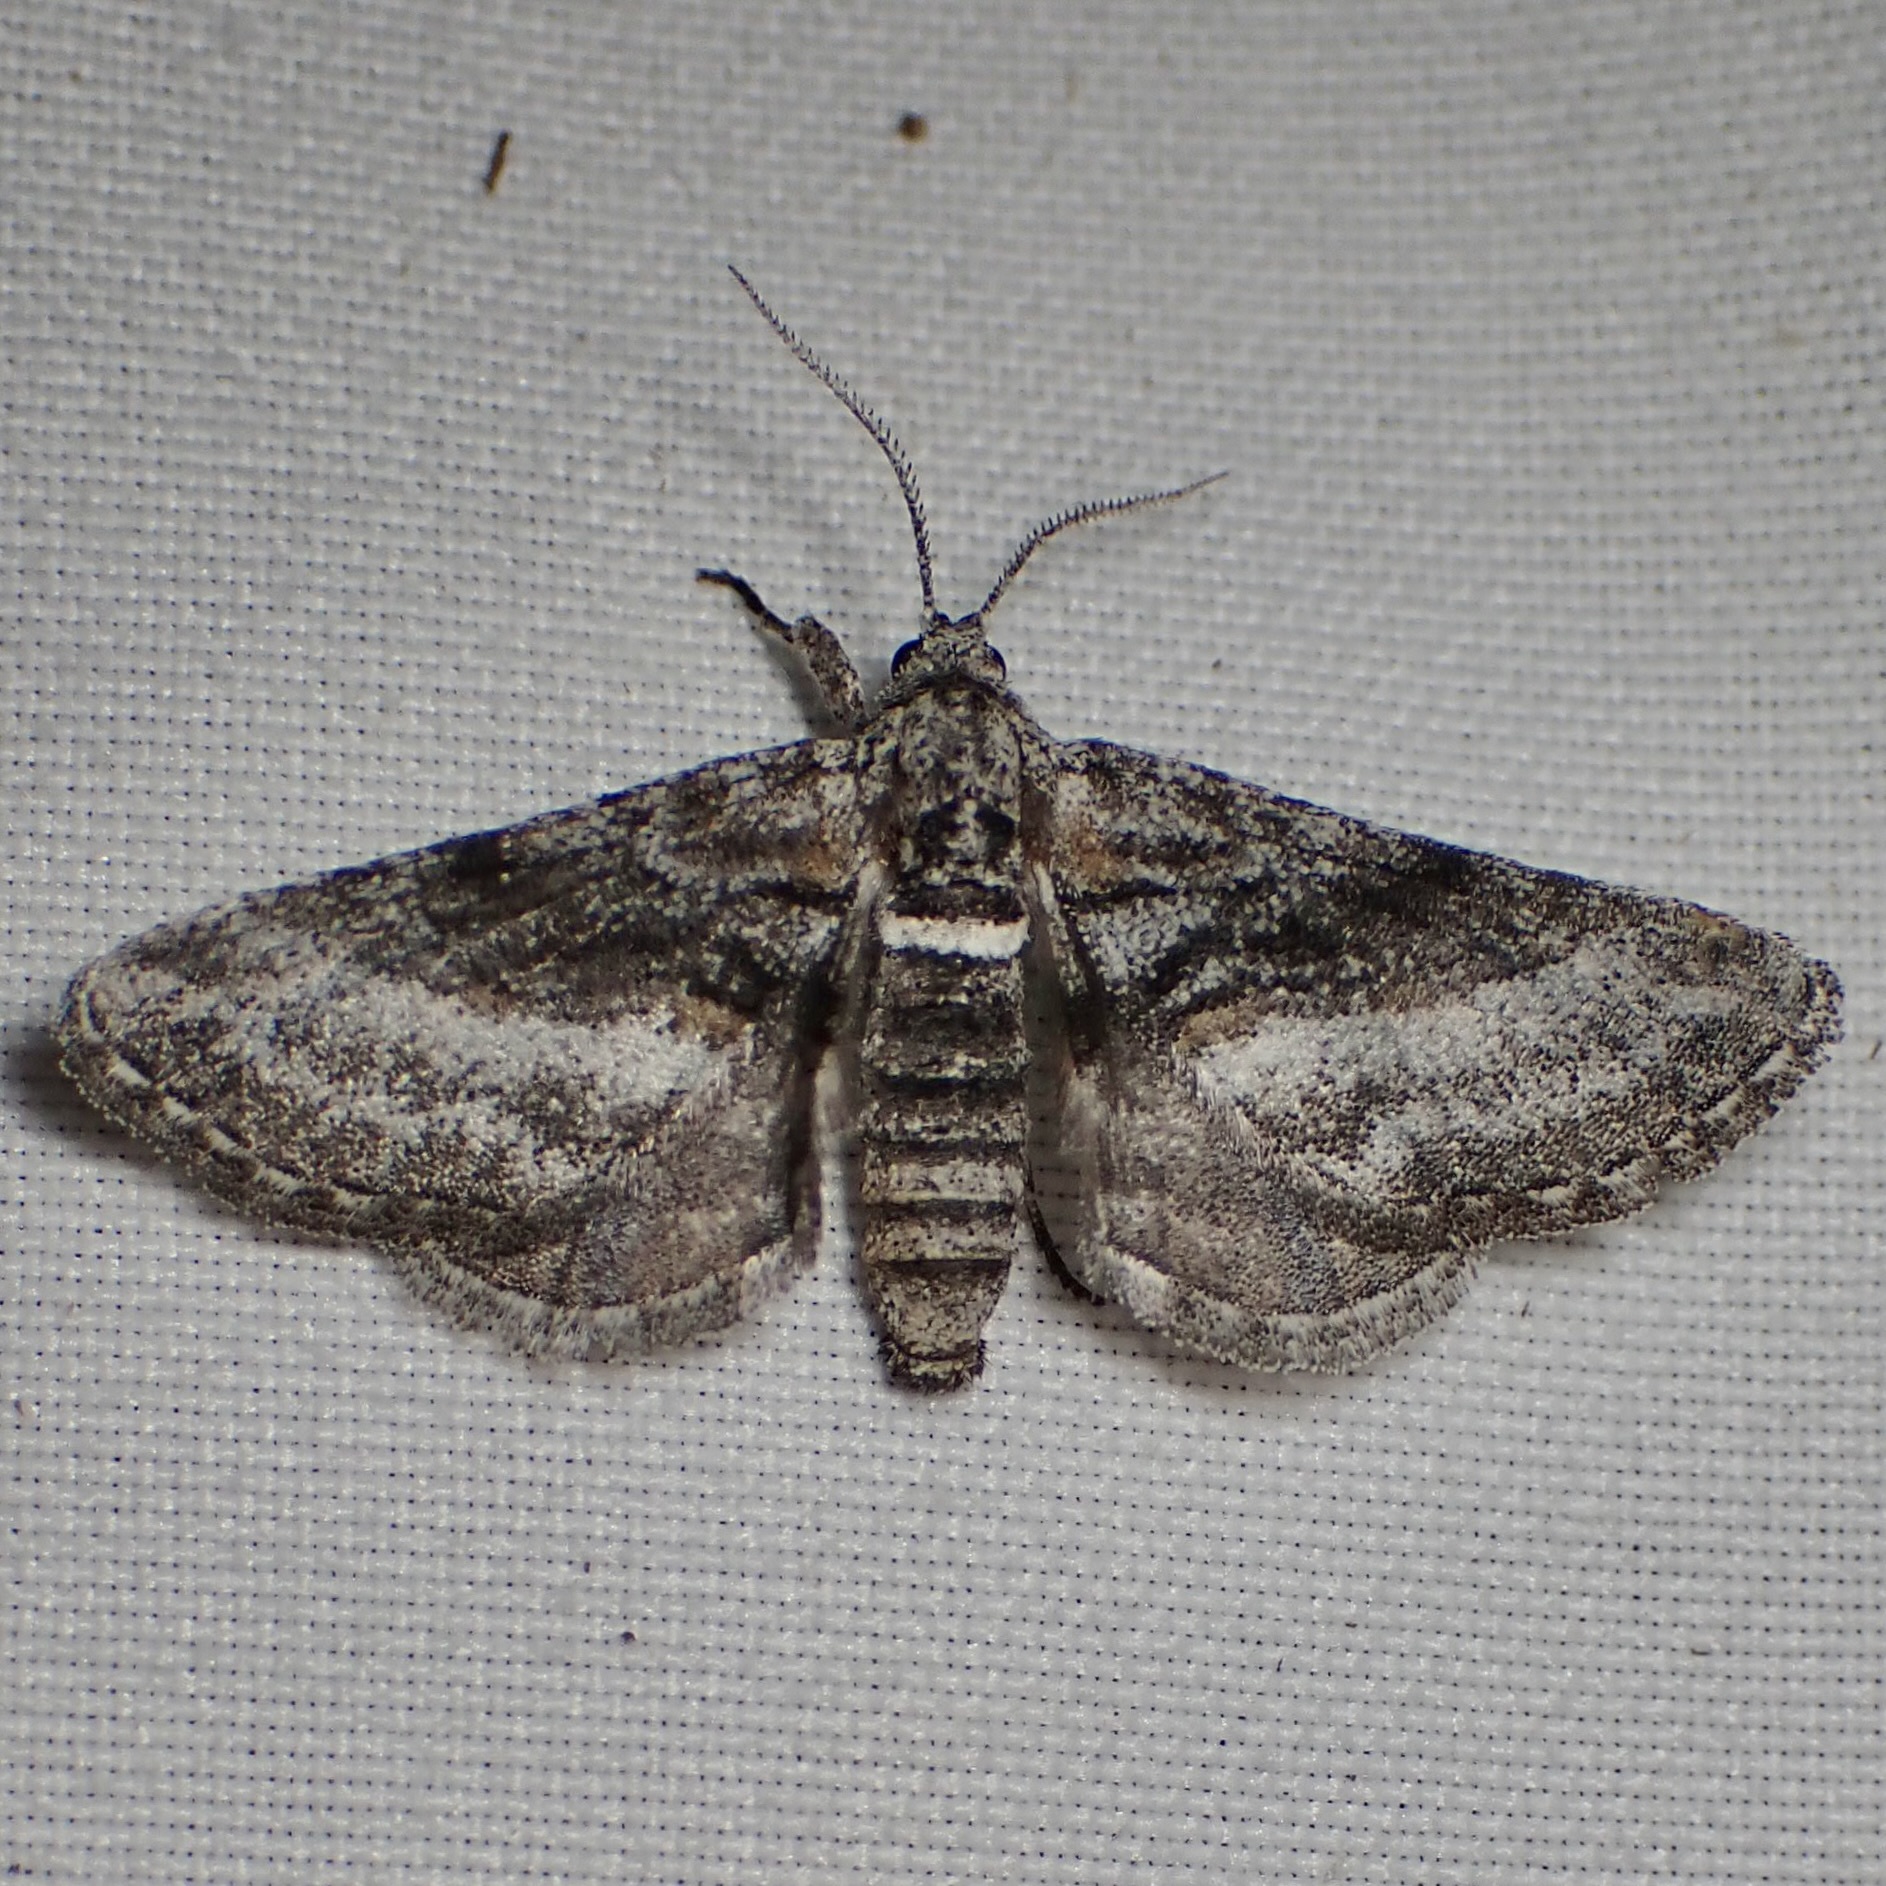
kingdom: Animalia
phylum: Arthropoda
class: Insecta
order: Lepidoptera
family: Geometridae
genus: Eubarnesia
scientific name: Eubarnesia ritaria
